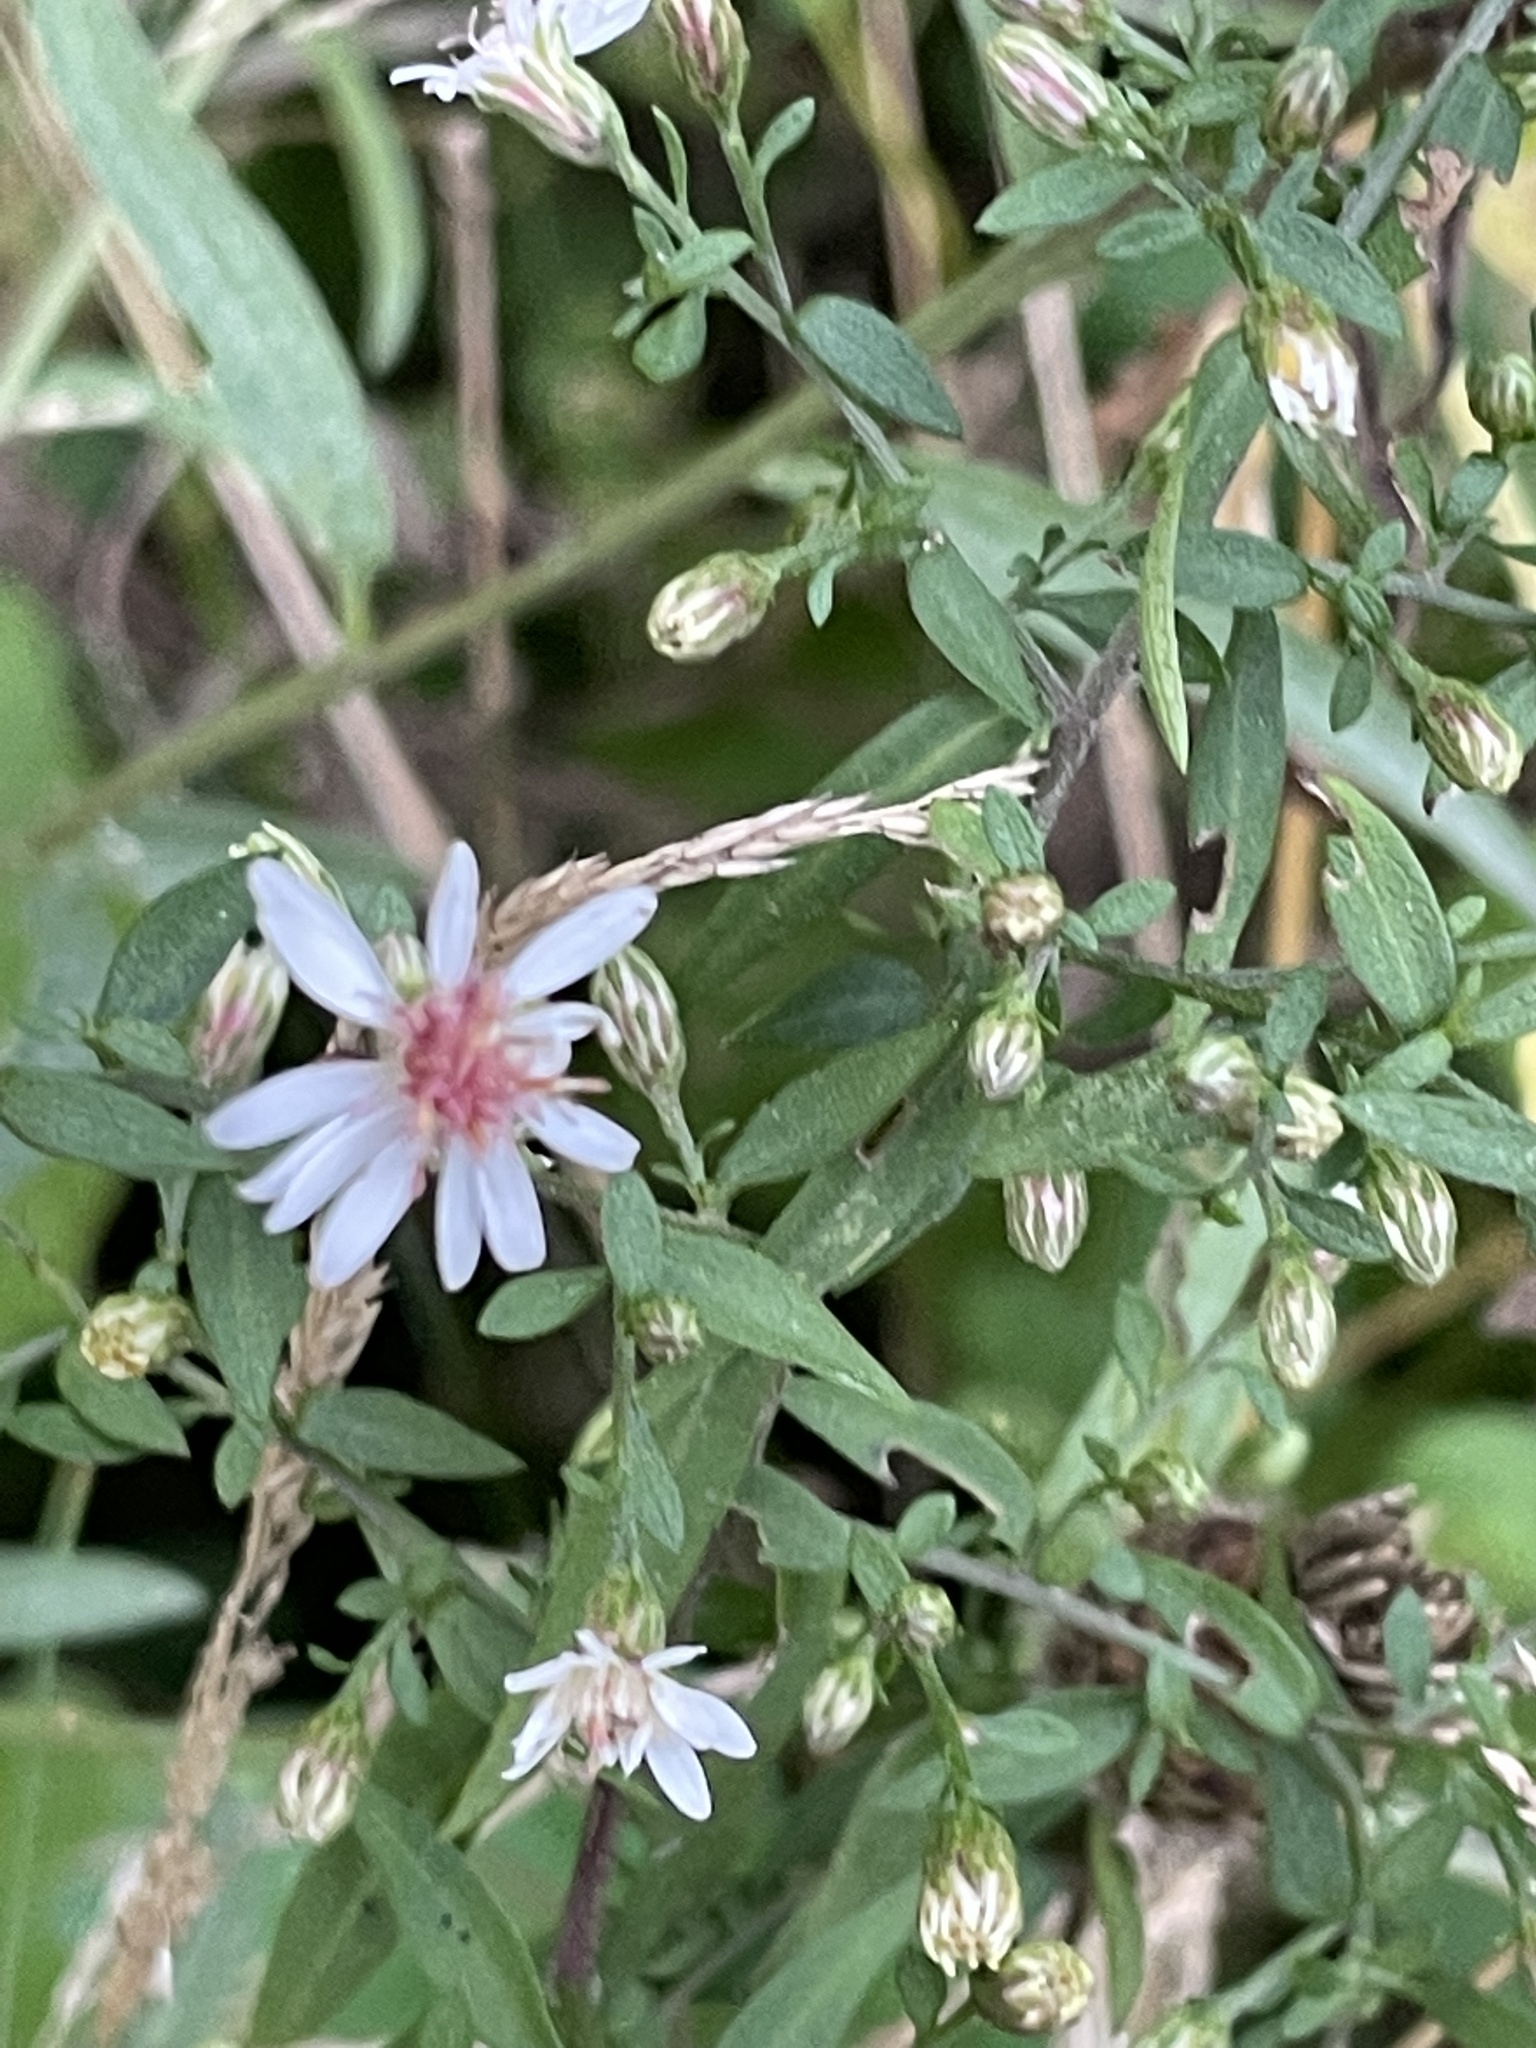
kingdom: Plantae
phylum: Tracheophyta
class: Magnoliopsida
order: Asterales
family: Asteraceae
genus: Symphyotrichum
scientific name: Symphyotrichum lateriflorum
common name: Calico aster
